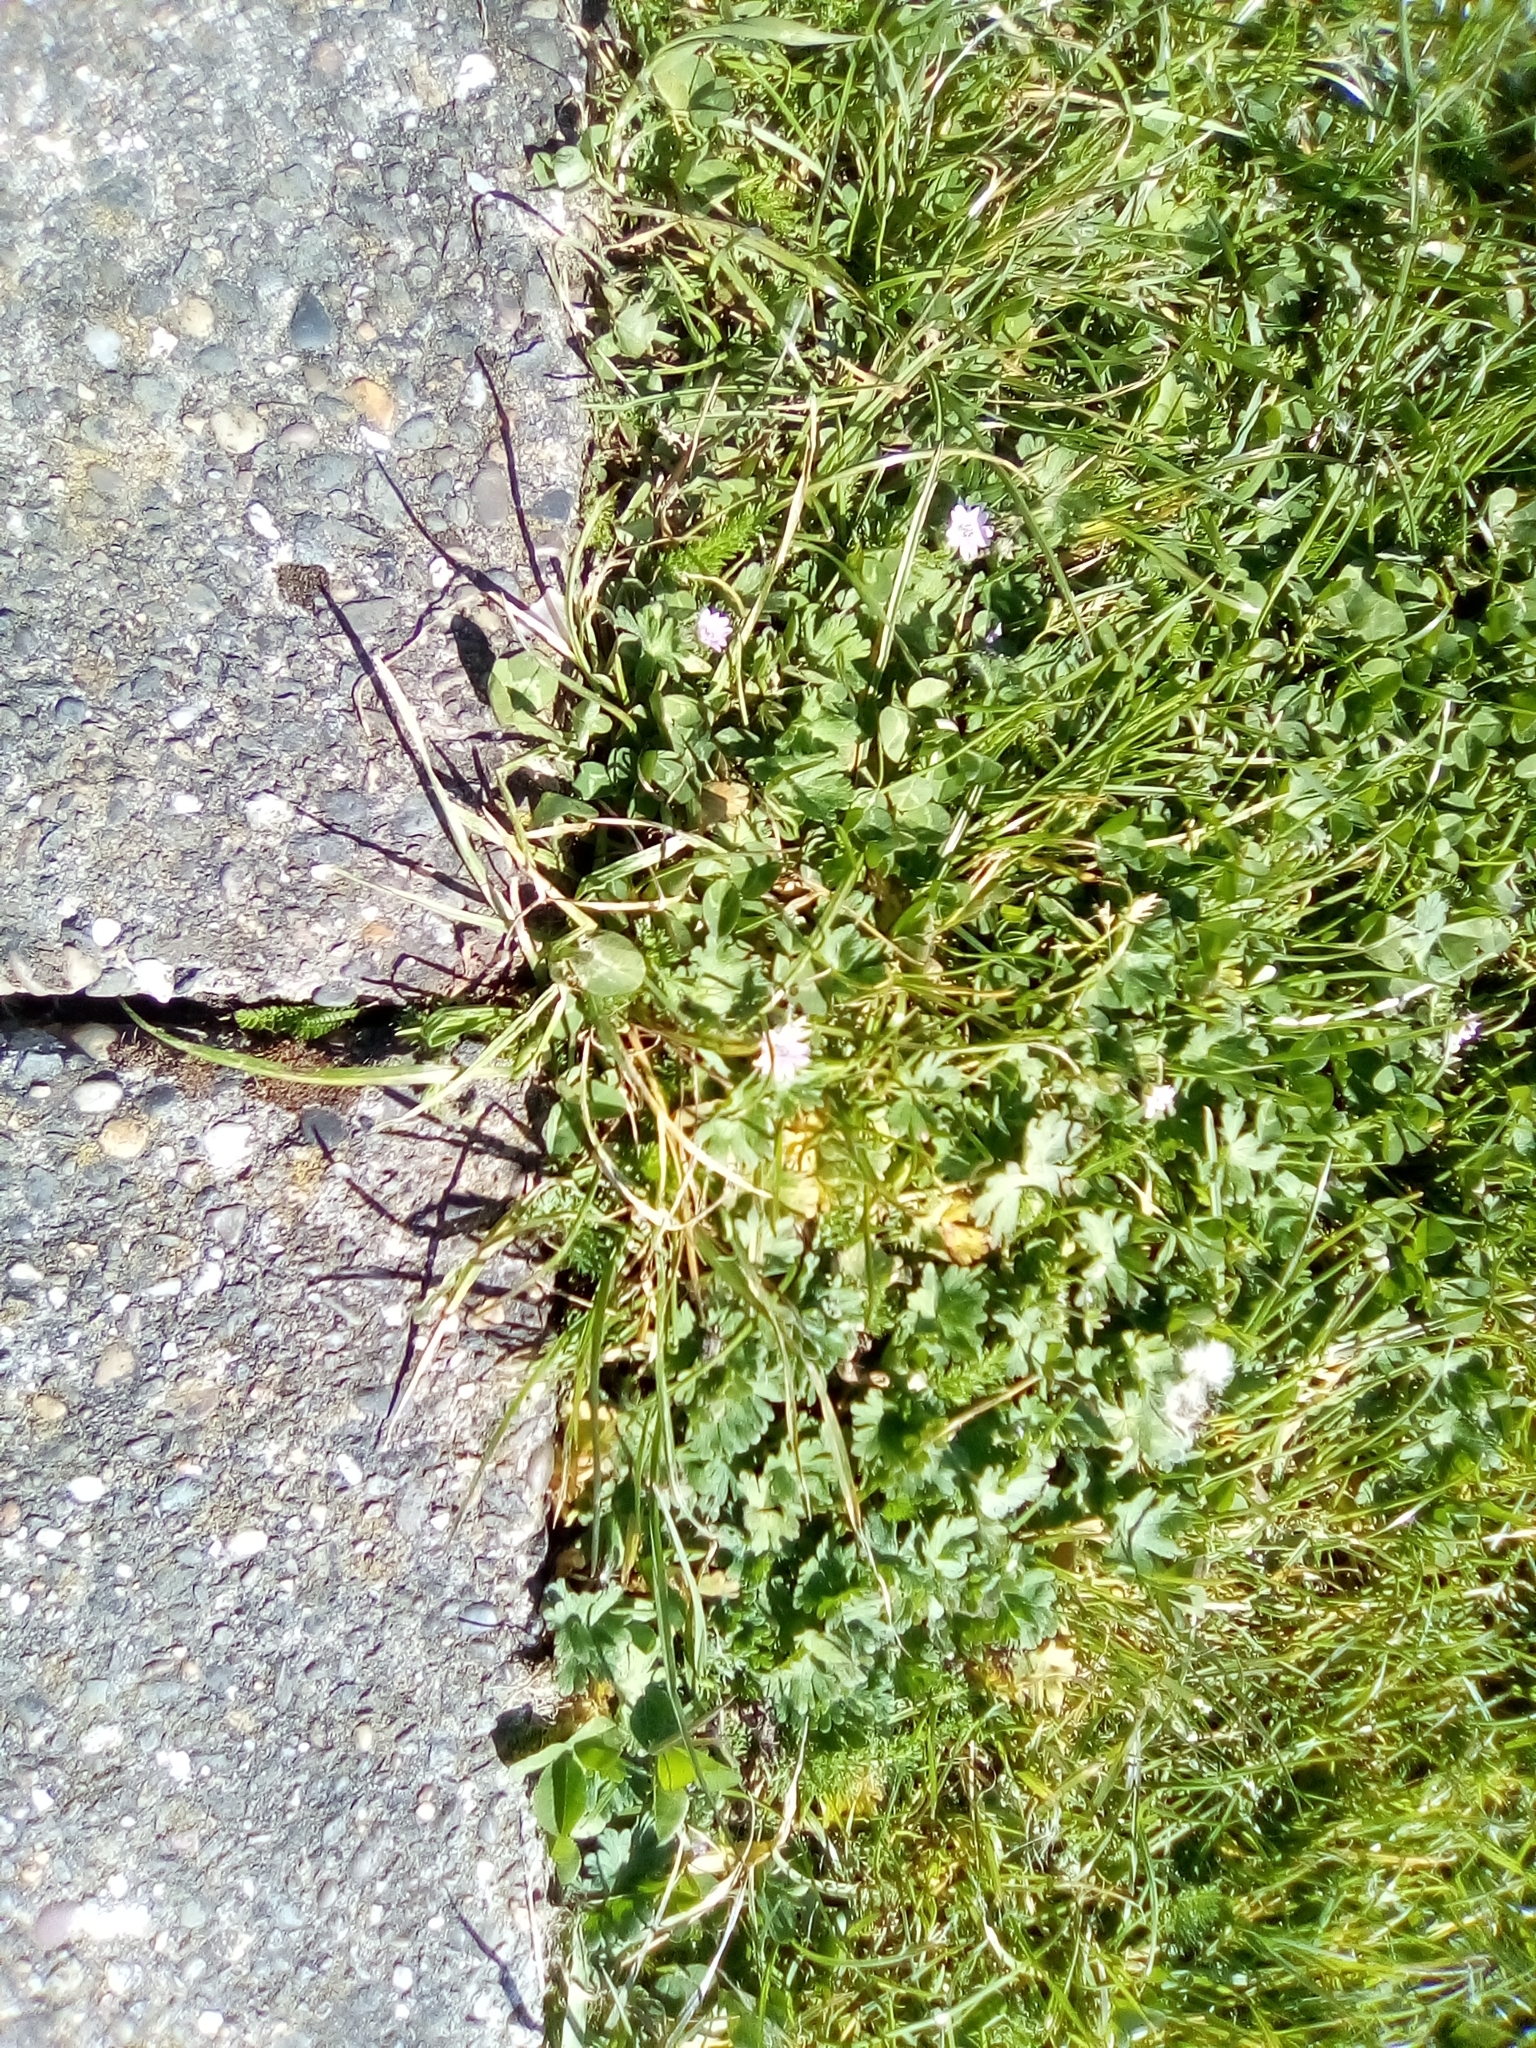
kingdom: Plantae
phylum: Tracheophyta
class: Magnoliopsida
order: Geraniales
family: Geraniaceae
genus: Geranium
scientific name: Geranium molle
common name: Dove's-foot crane's-bill
